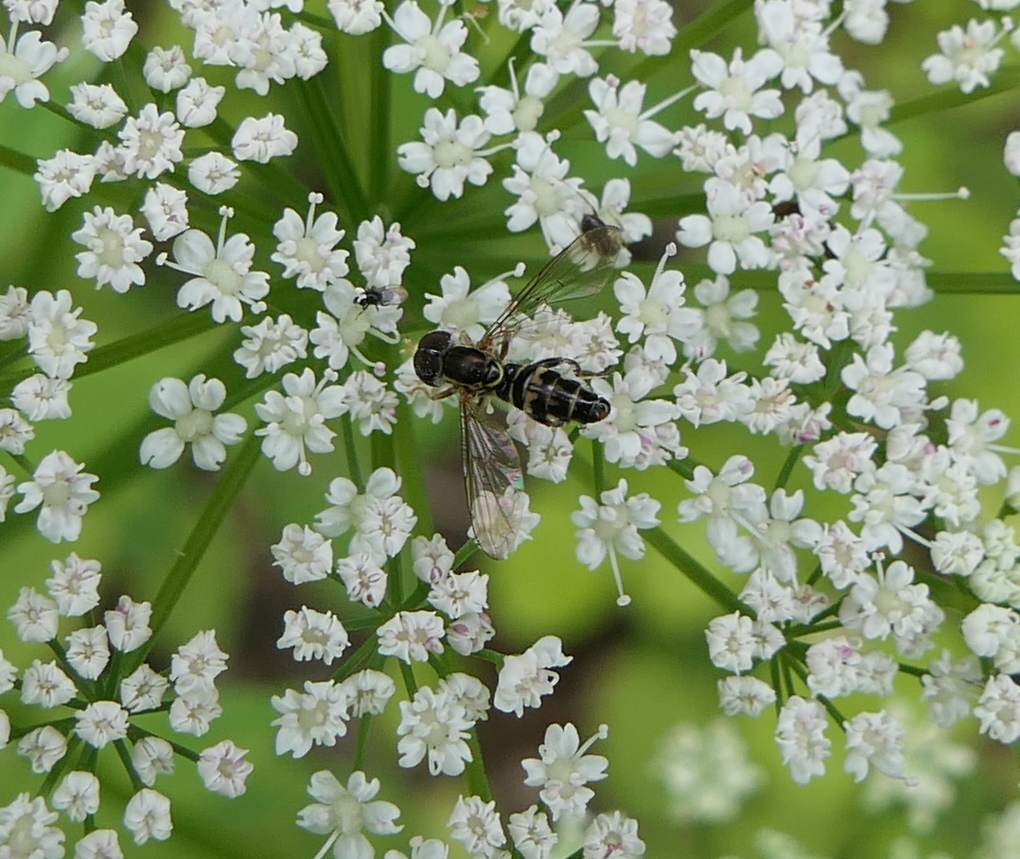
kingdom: Animalia
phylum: Arthropoda
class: Insecta
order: Diptera
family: Syrphidae
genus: Toxomerus
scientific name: Toxomerus geminatus
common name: Eastern calligrapher
